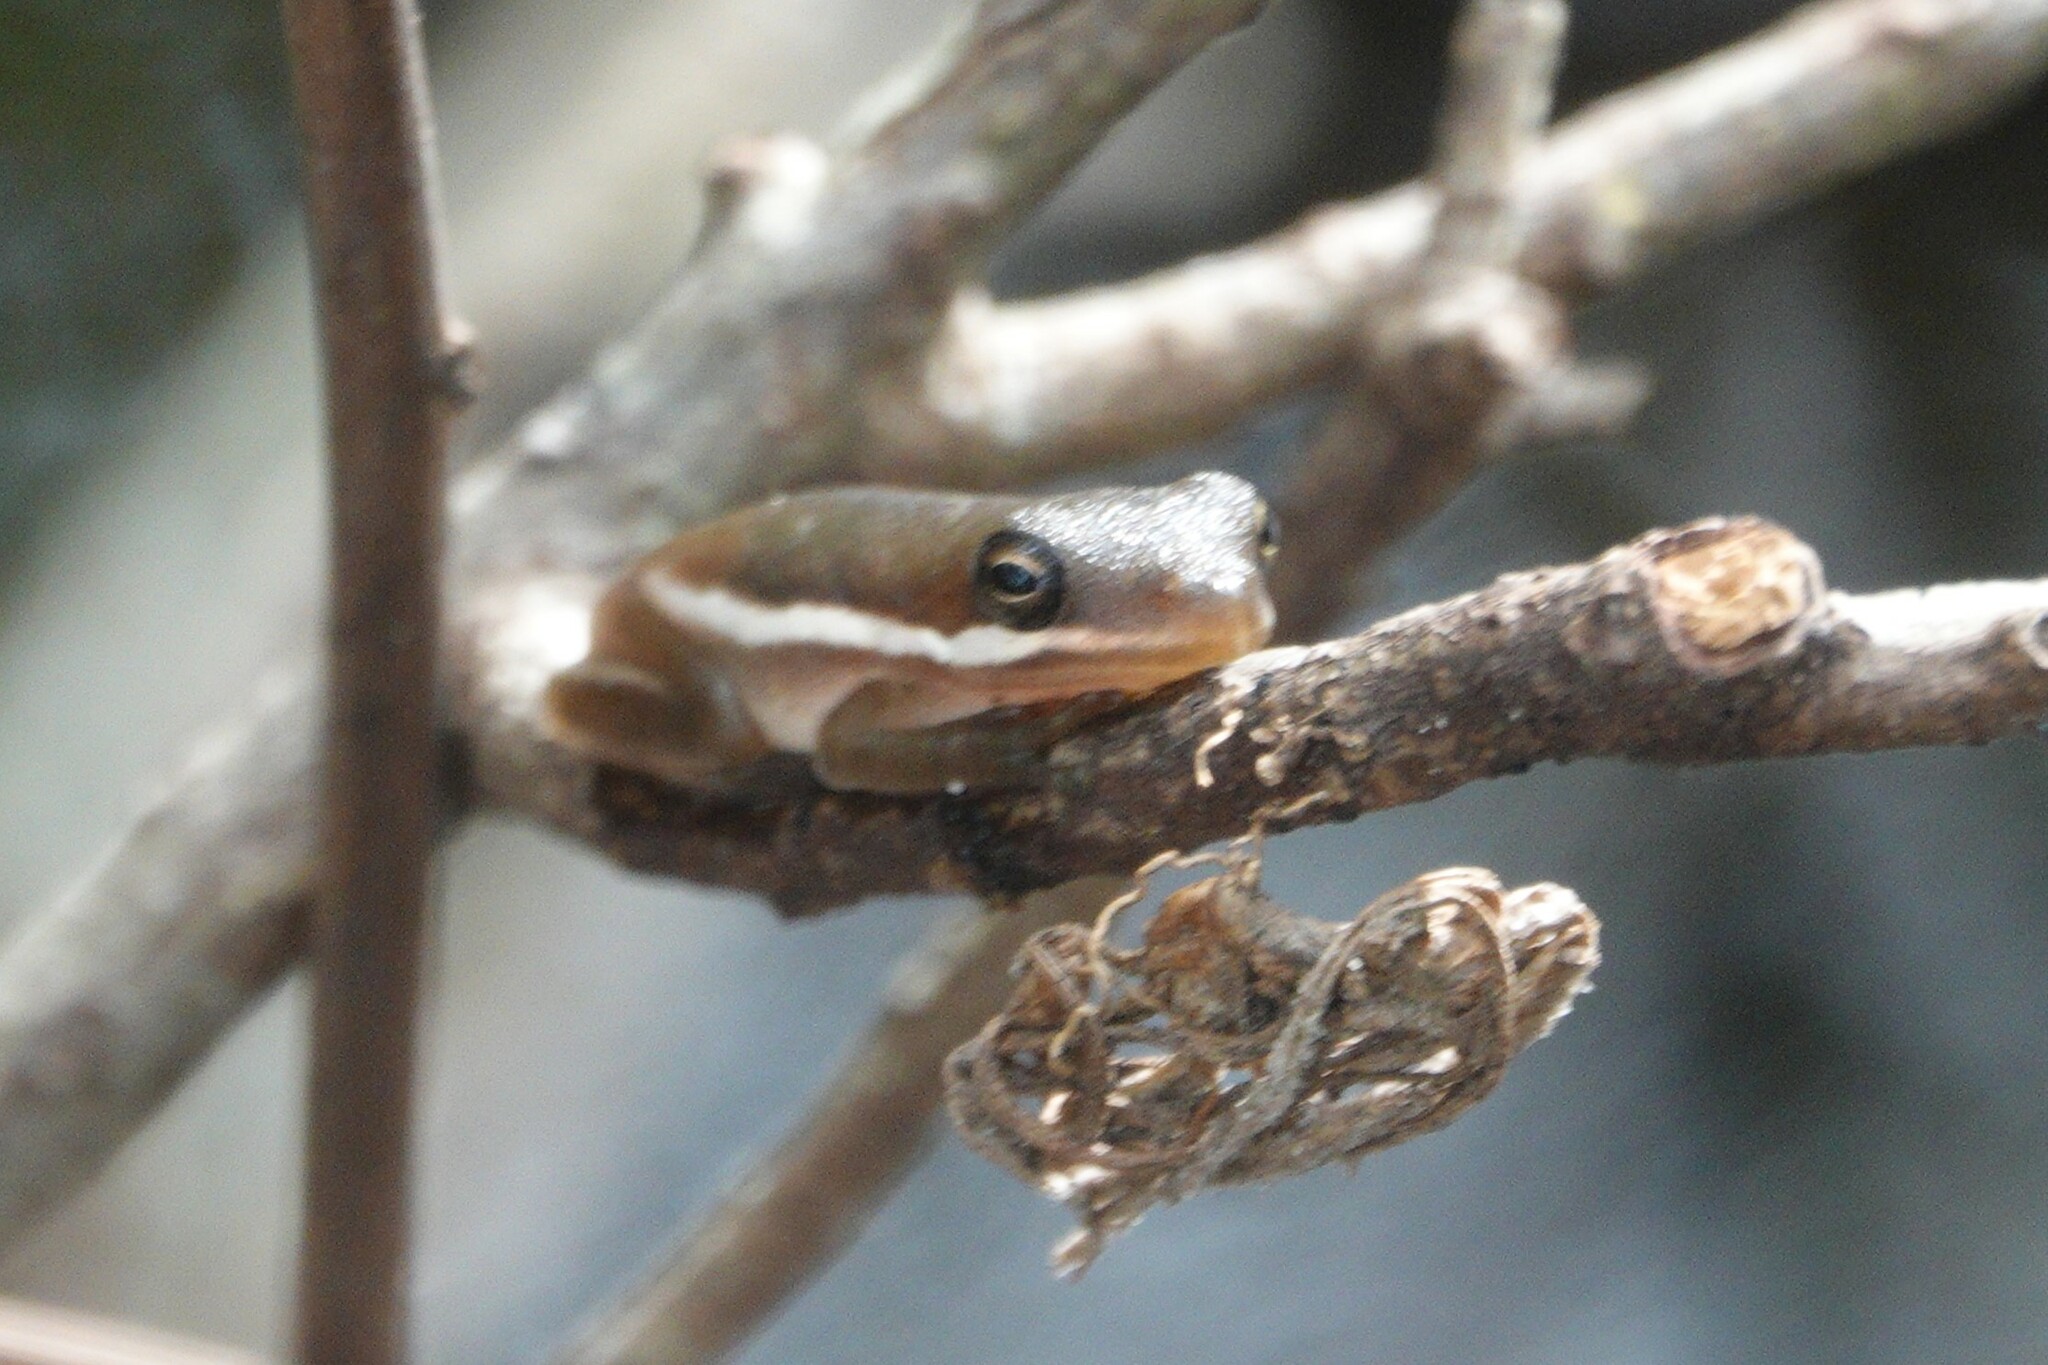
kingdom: Animalia
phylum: Chordata
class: Amphibia
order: Anura
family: Hylidae
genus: Dryophytes
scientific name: Dryophytes cinereus
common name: Green treefrog
